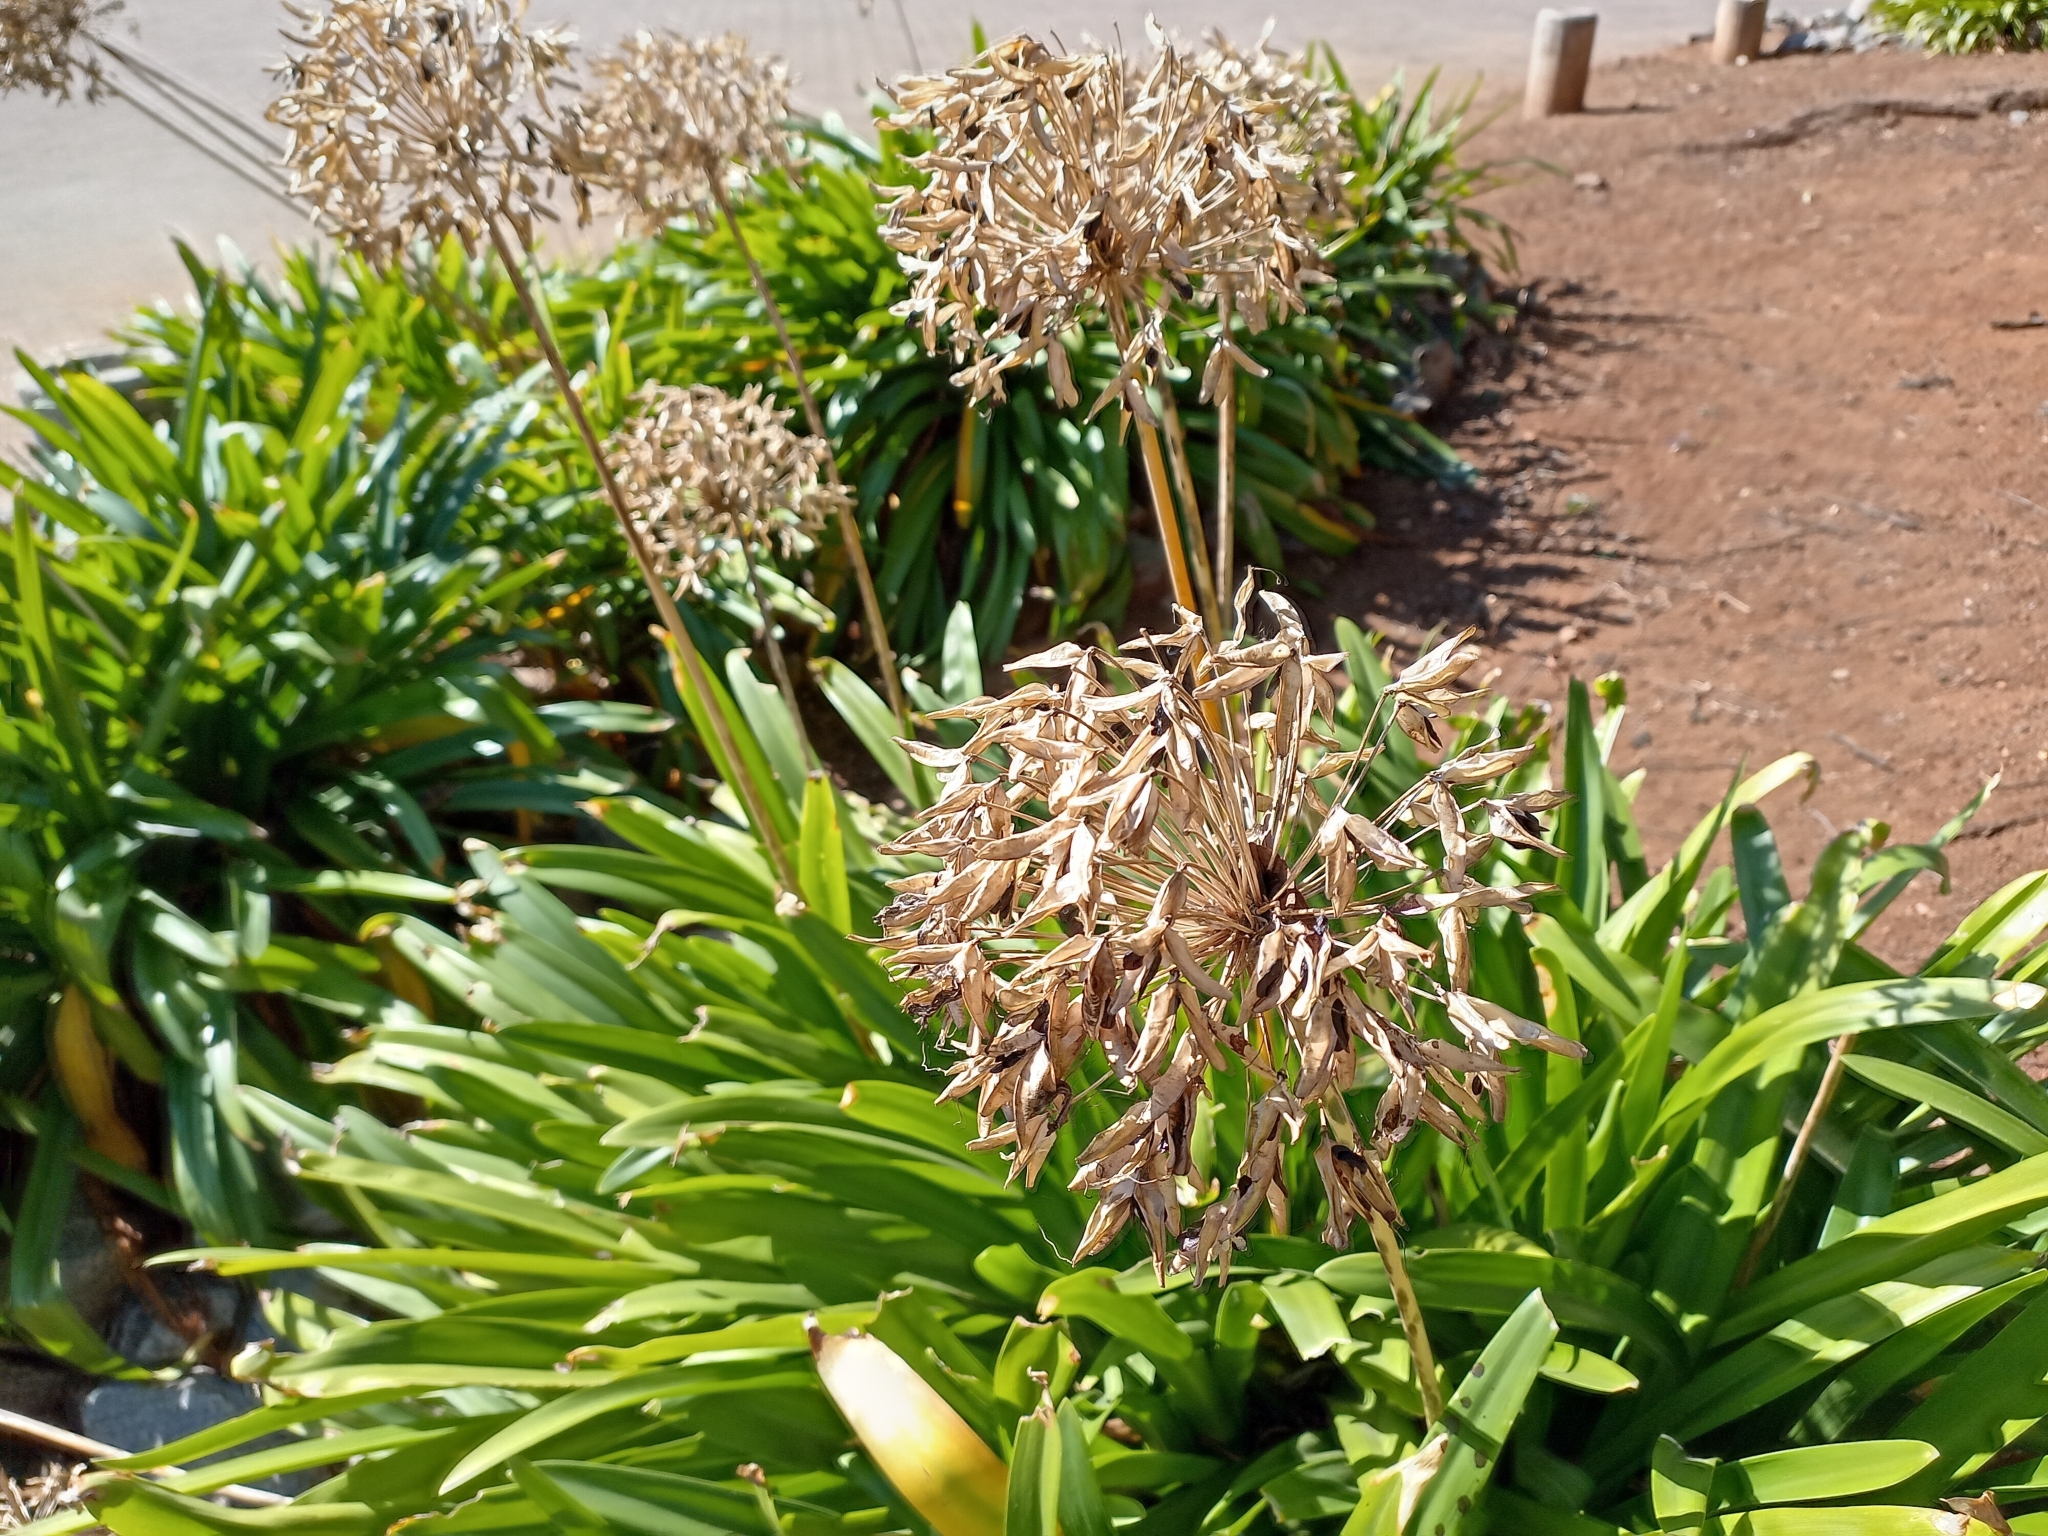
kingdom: Plantae
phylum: Tracheophyta
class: Liliopsida
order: Asparagales
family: Amaryllidaceae
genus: Agapanthus
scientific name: Agapanthus praecox
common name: African-lily
